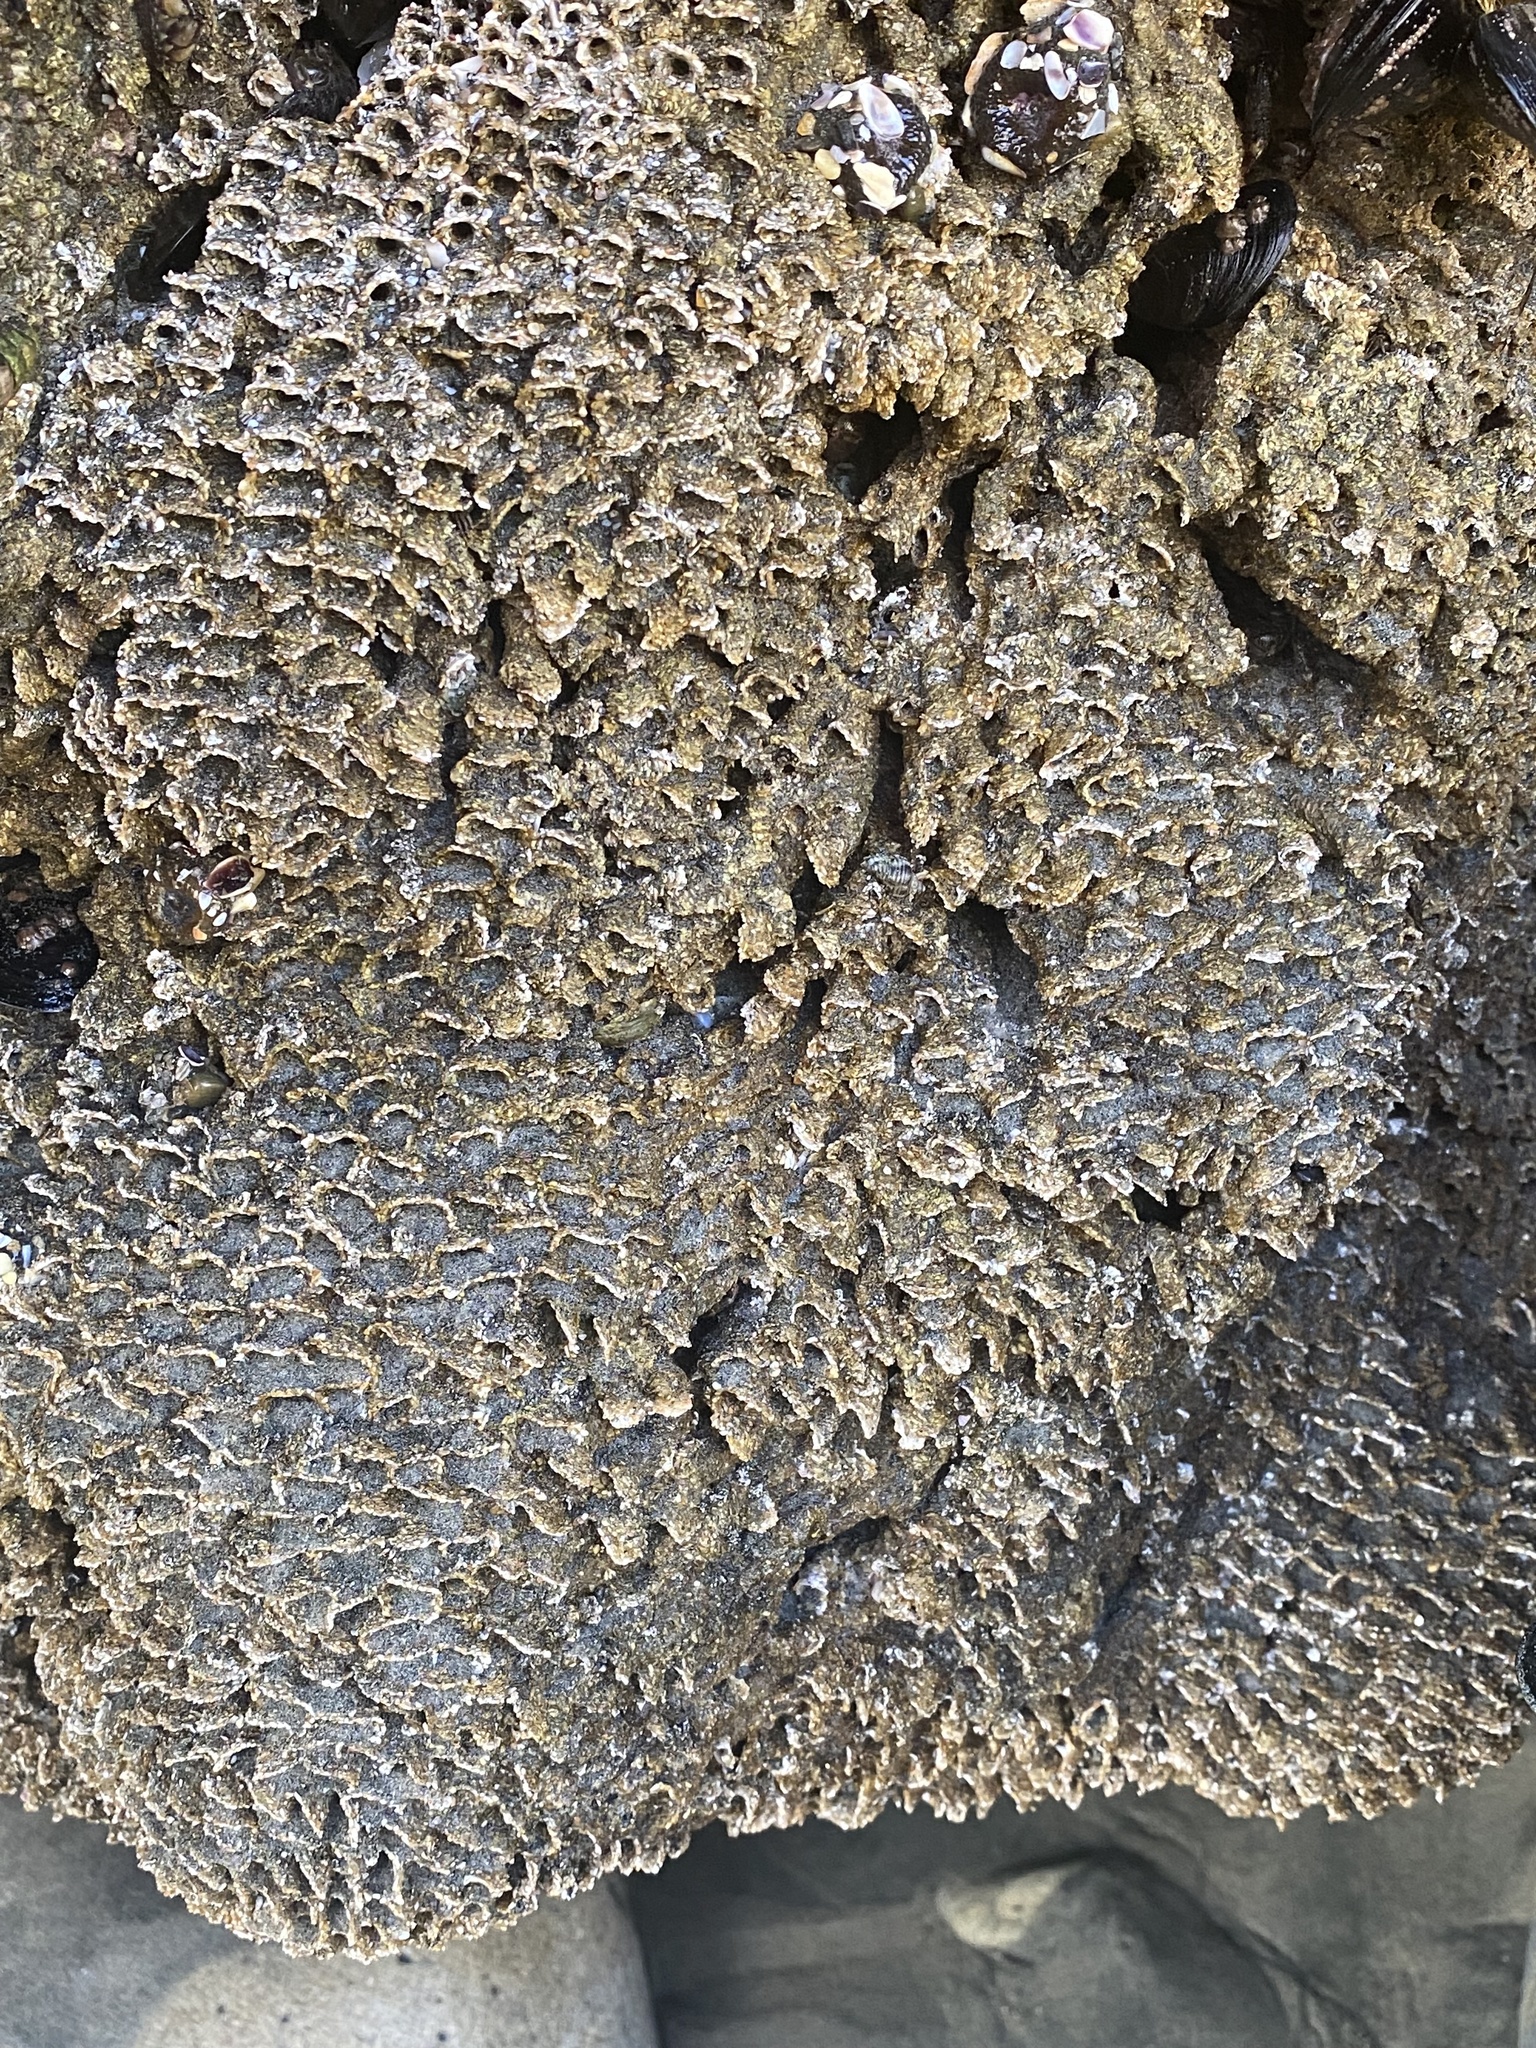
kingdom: Animalia
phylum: Annelida
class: Polychaeta
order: Sabellida
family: Sabellariidae
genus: Phragmatopoma
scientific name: Phragmatopoma californica
